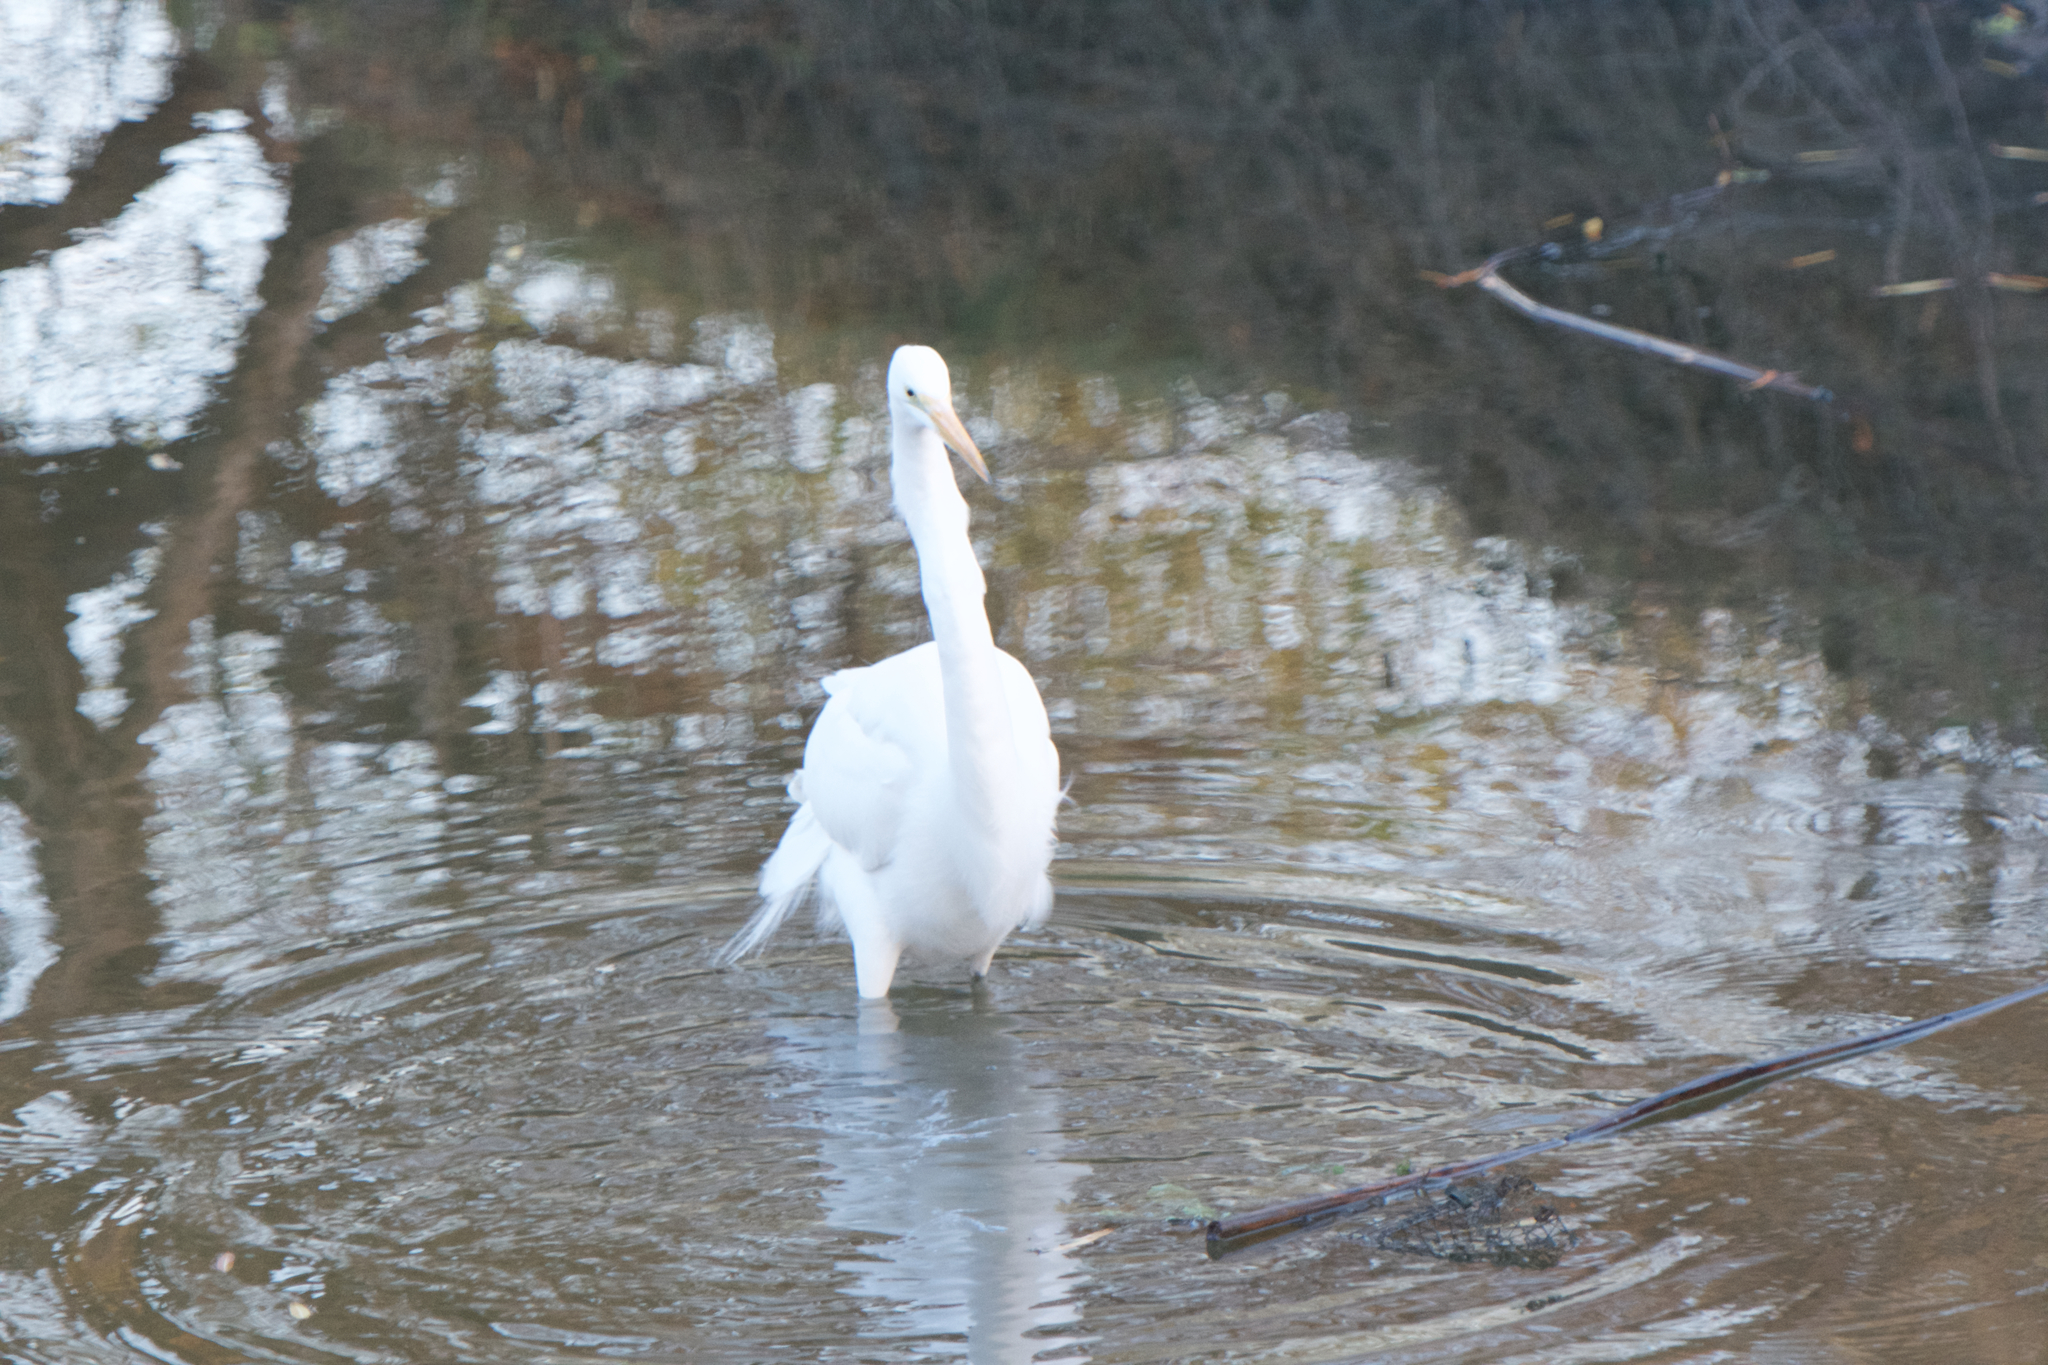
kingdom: Animalia
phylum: Chordata
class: Aves
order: Pelecaniformes
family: Ardeidae
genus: Ardea
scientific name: Ardea alba
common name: Great egret
